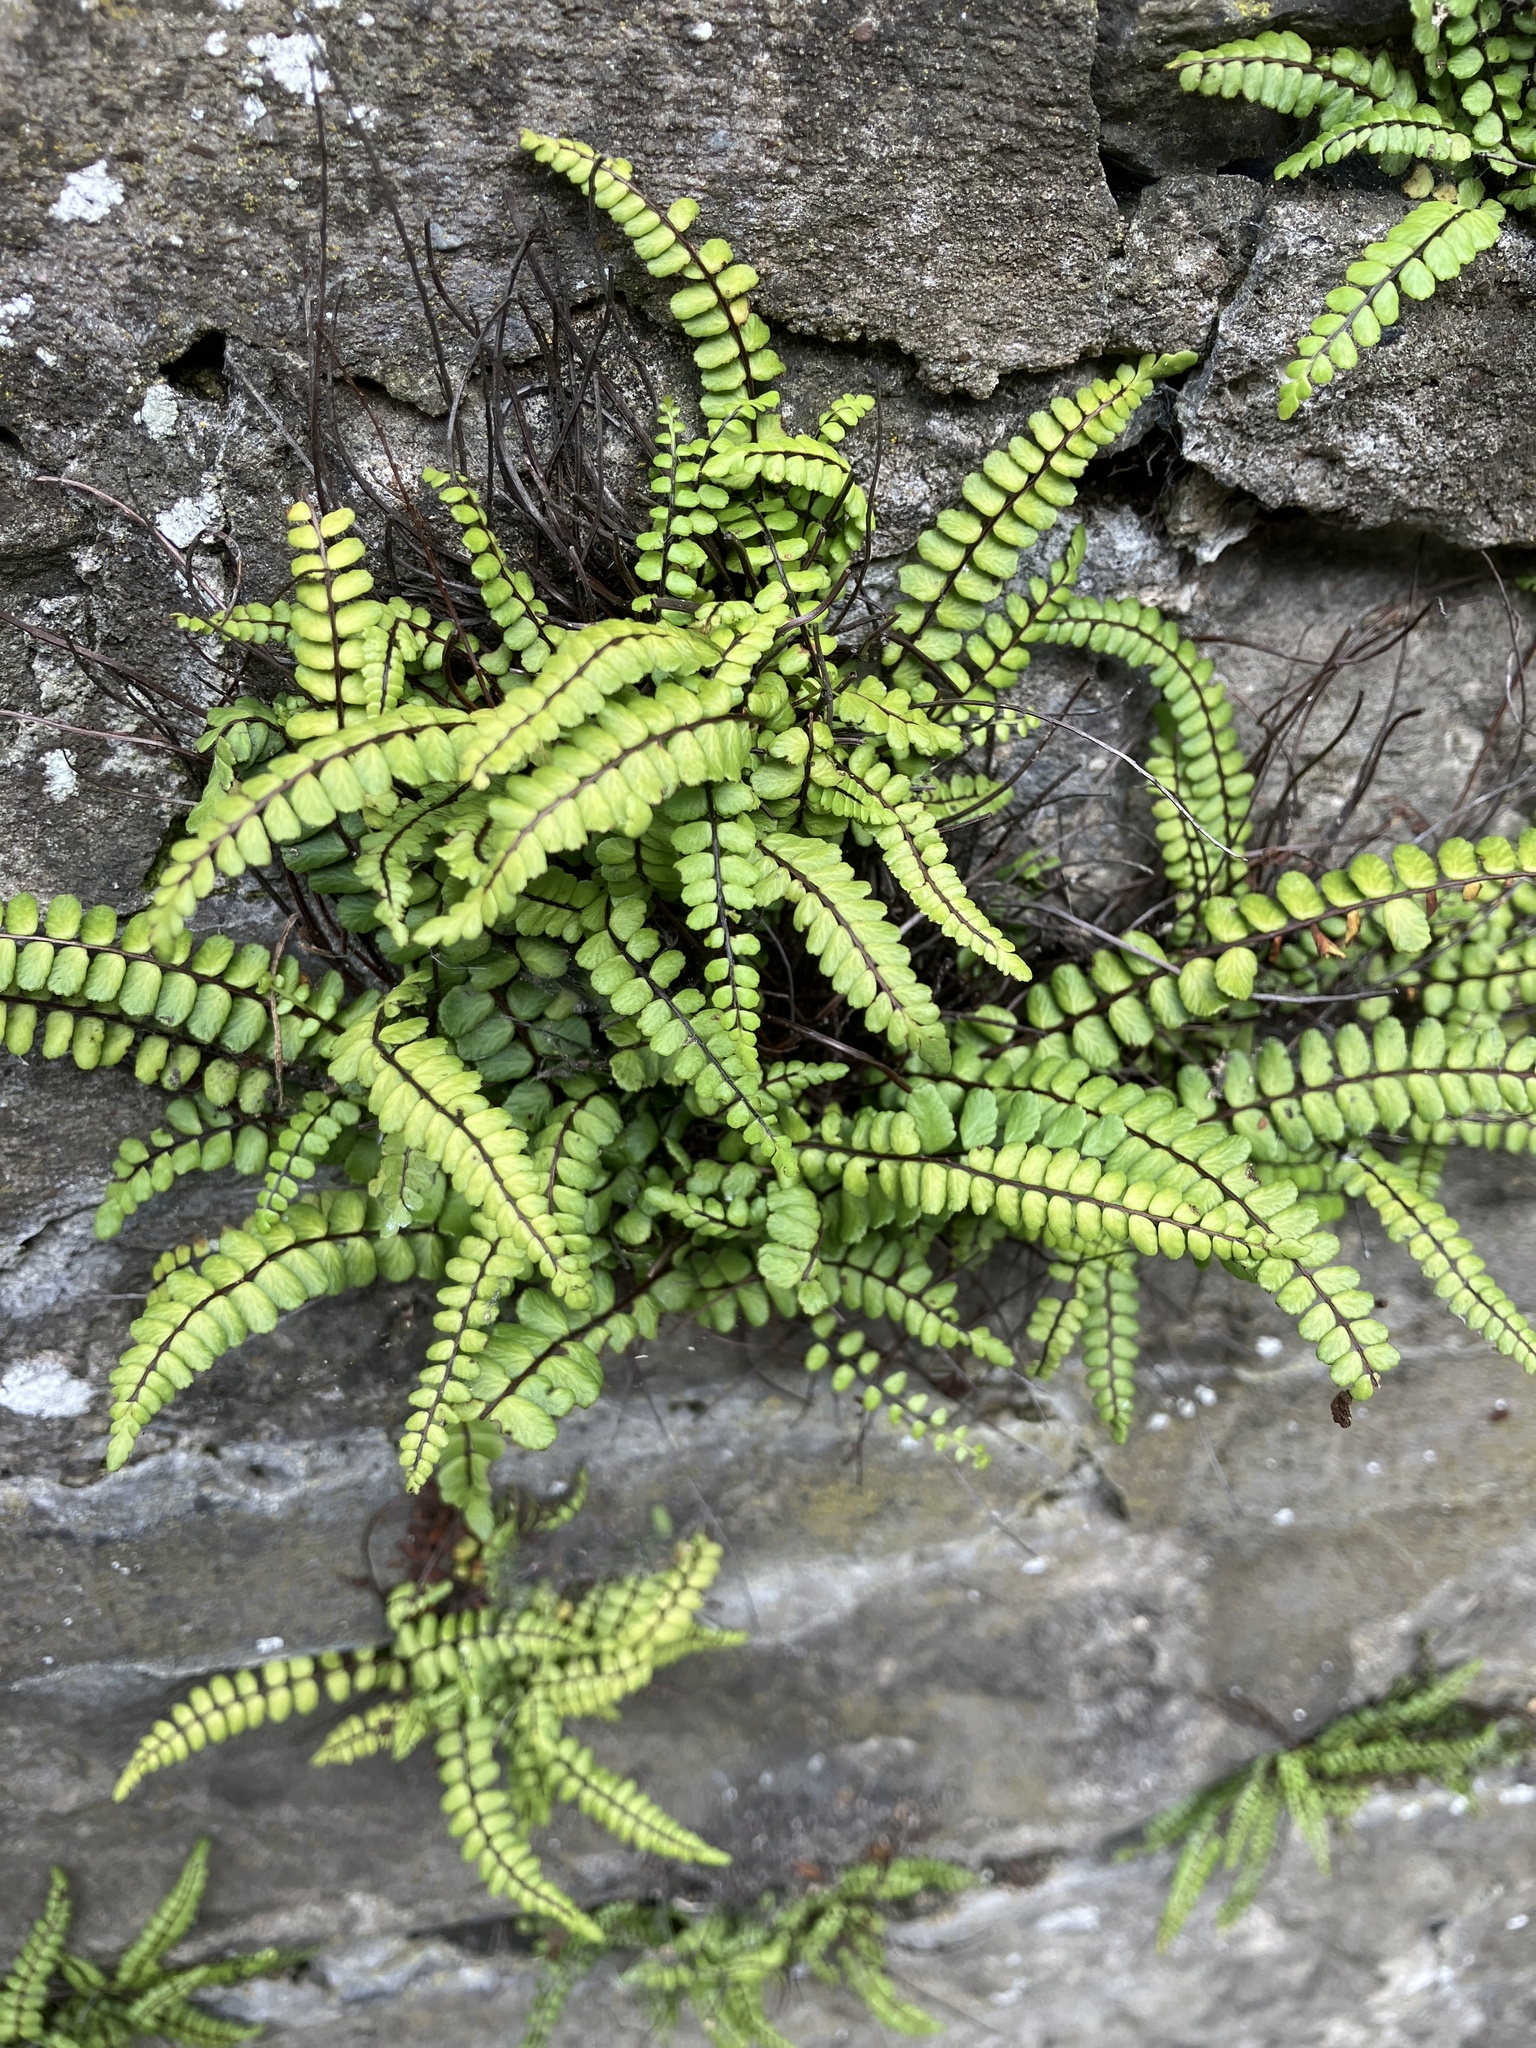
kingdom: Plantae
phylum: Tracheophyta
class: Polypodiopsida
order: Polypodiales
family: Aspleniaceae
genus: Asplenium
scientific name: Asplenium trichomanes
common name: Maidenhair spleenwort
